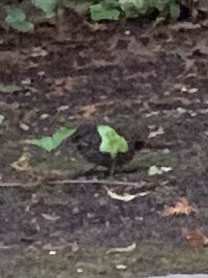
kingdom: Animalia
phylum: Chordata
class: Aves
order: Passeriformes
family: Passerellidae
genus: Melospiza
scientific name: Melospiza melodia
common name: Song sparrow
